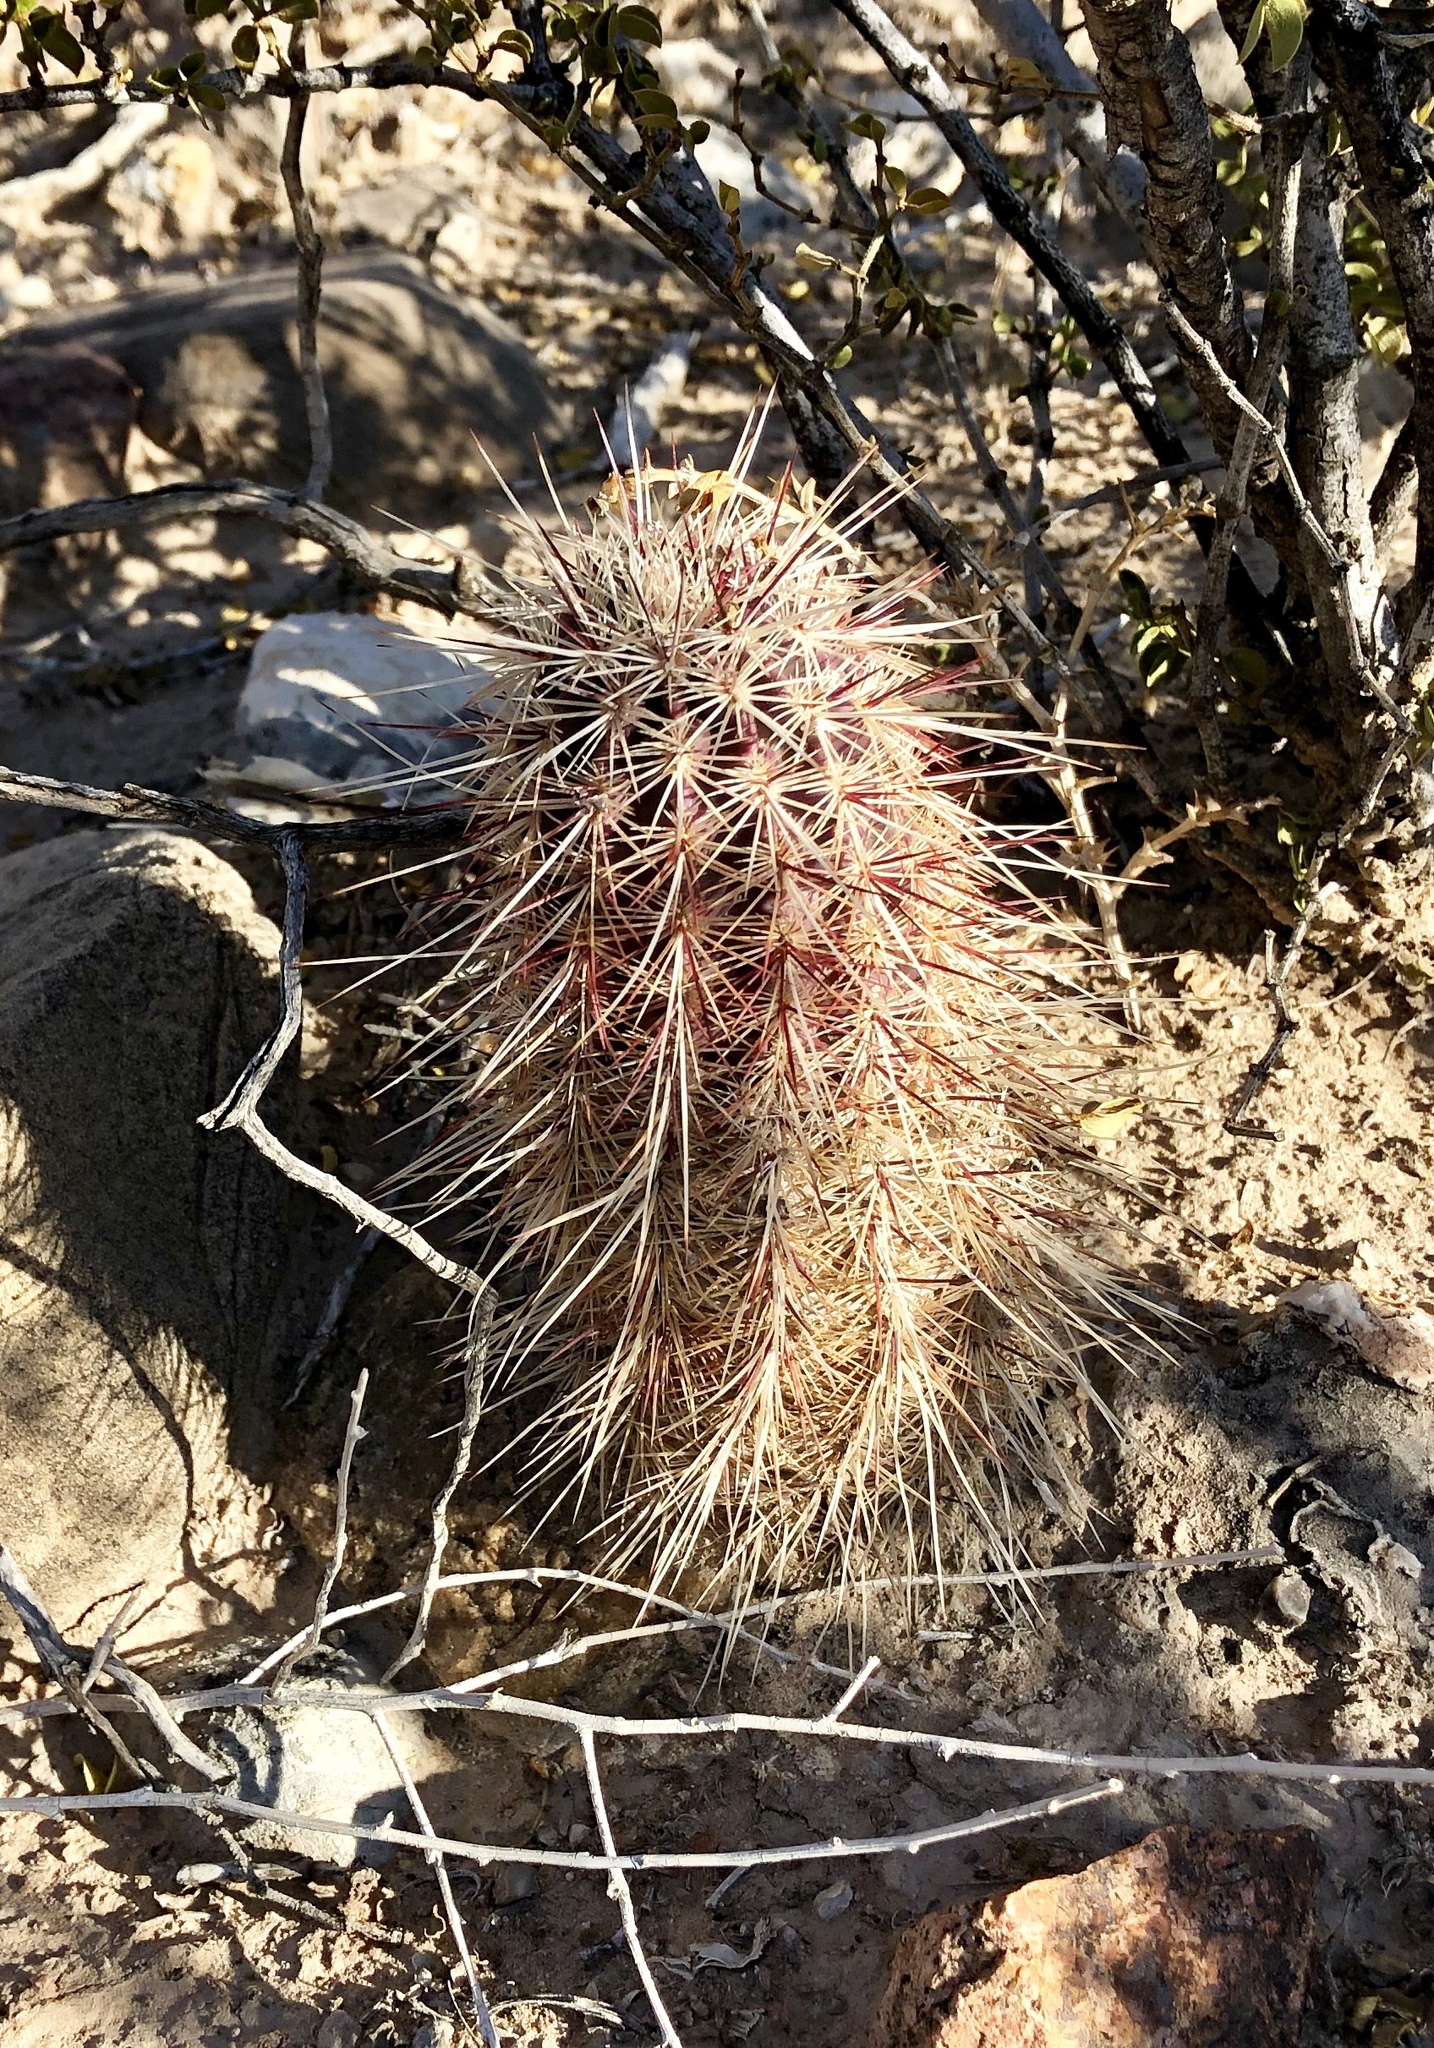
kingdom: Plantae
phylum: Tracheophyta
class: Magnoliopsida
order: Caryophyllales
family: Cactaceae
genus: Echinocereus
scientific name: Echinocereus viridiflorus
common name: Nylon hedgehog cactus
